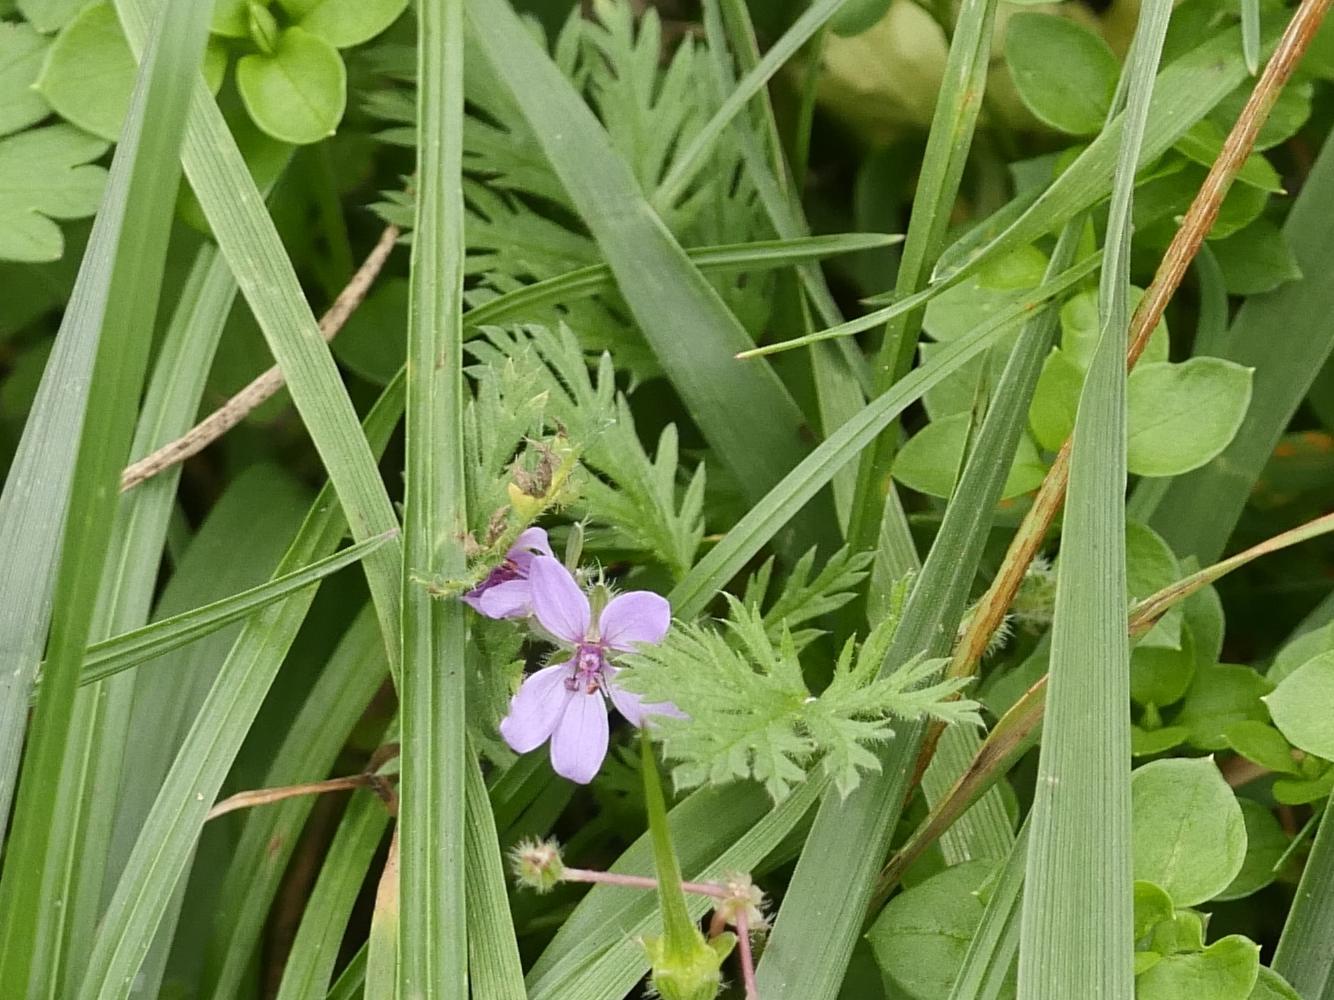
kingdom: Plantae
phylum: Tracheophyta
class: Magnoliopsida
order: Geraniales
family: Geraniaceae
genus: Erodium
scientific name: Erodium cicutarium
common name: Common stork's-bill
